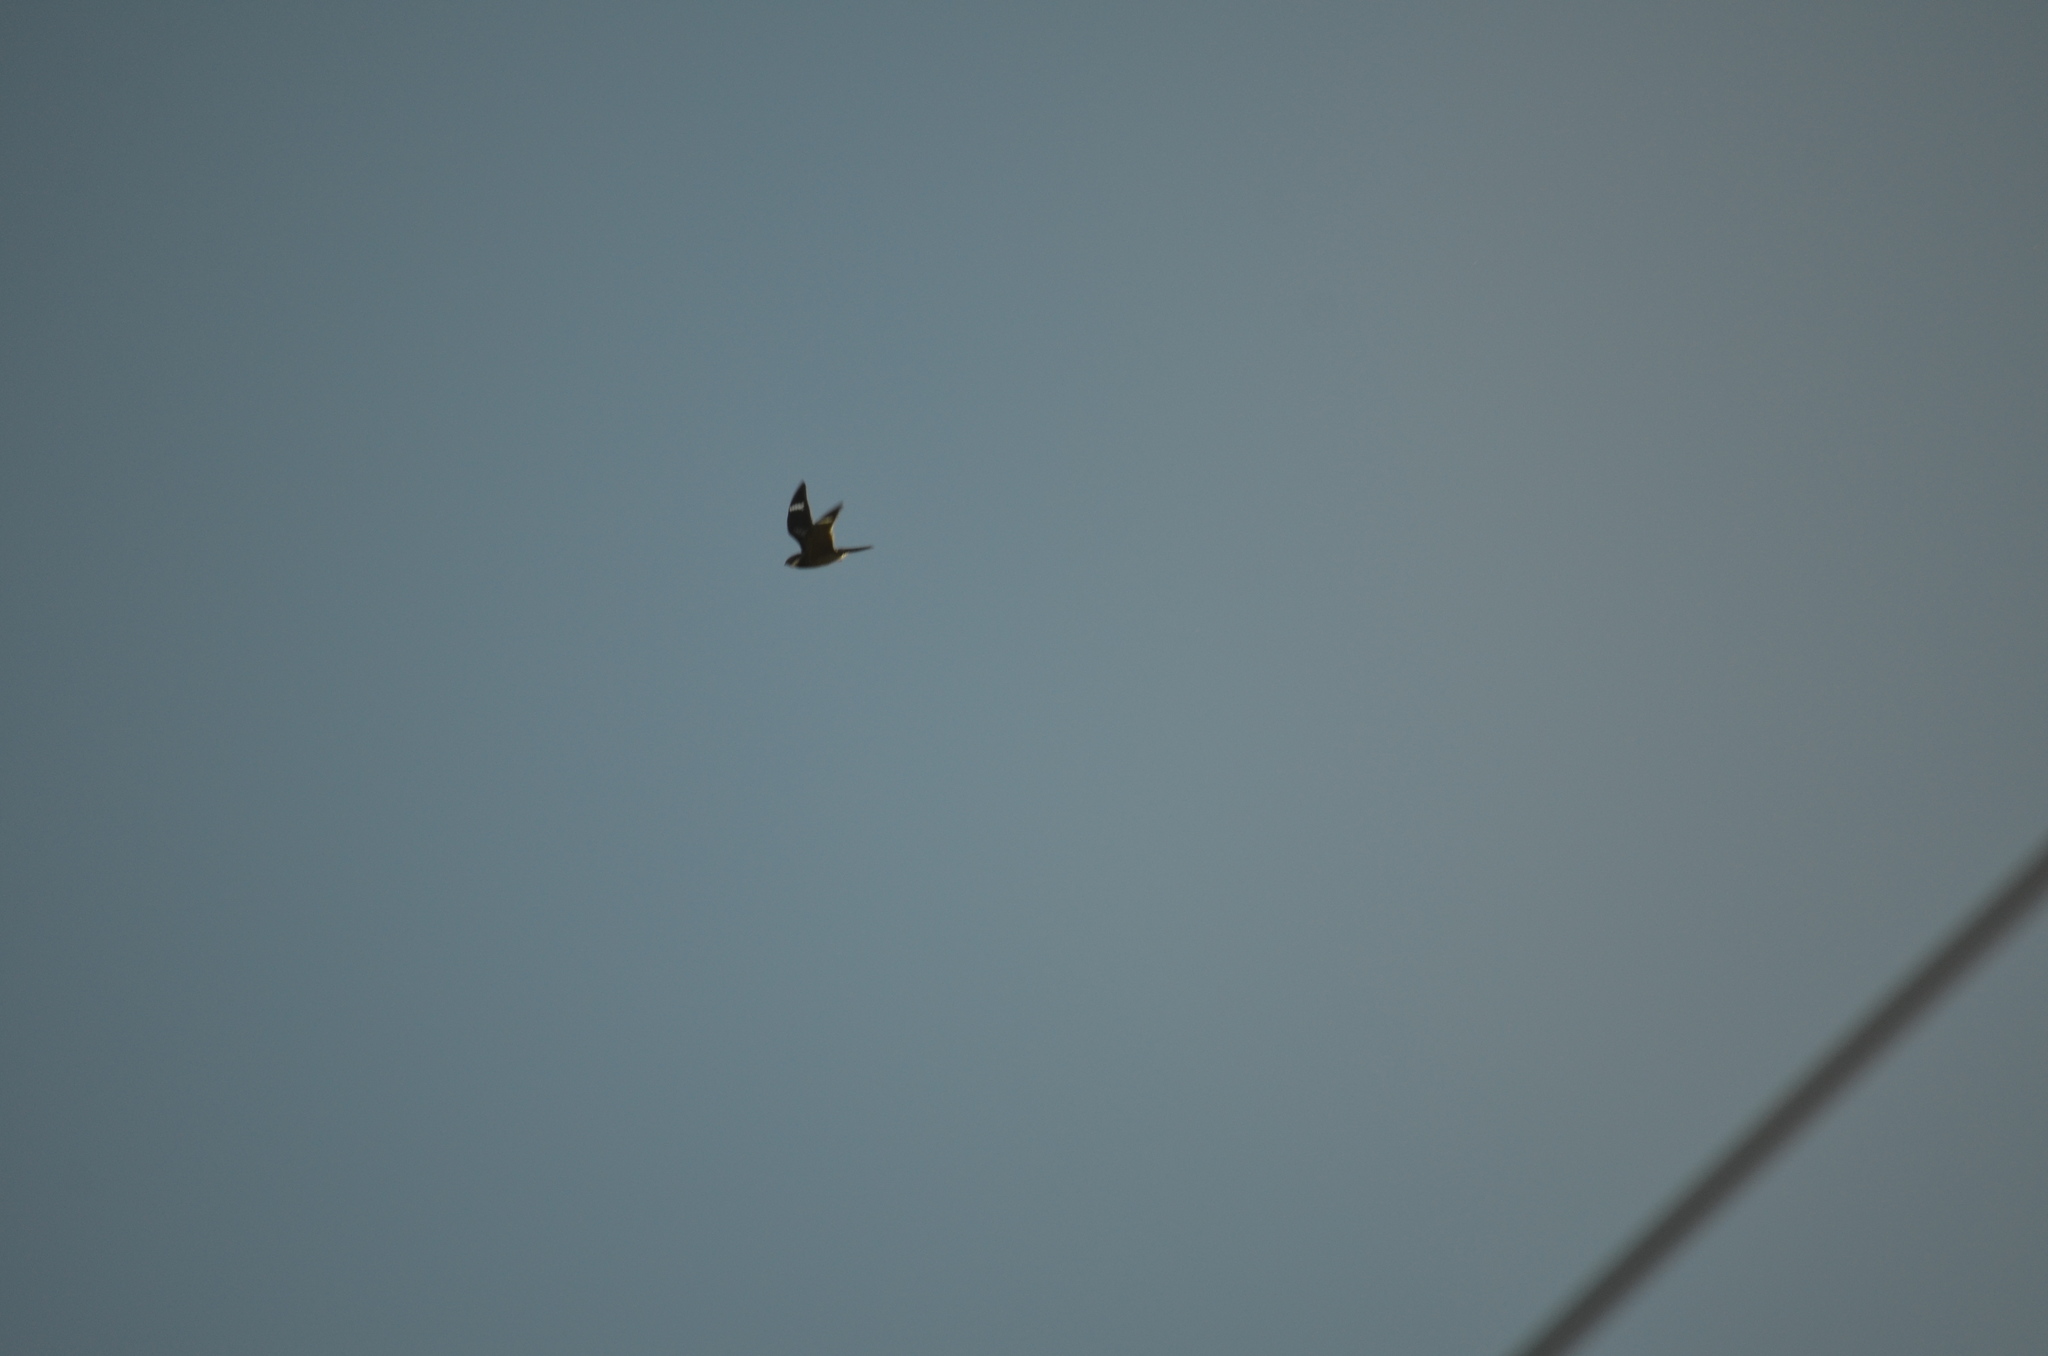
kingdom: Animalia
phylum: Chordata
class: Aves
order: Caprimulgiformes
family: Caprimulgidae
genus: Chordeiles
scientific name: Chordeiles minor
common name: Common nighthawk
